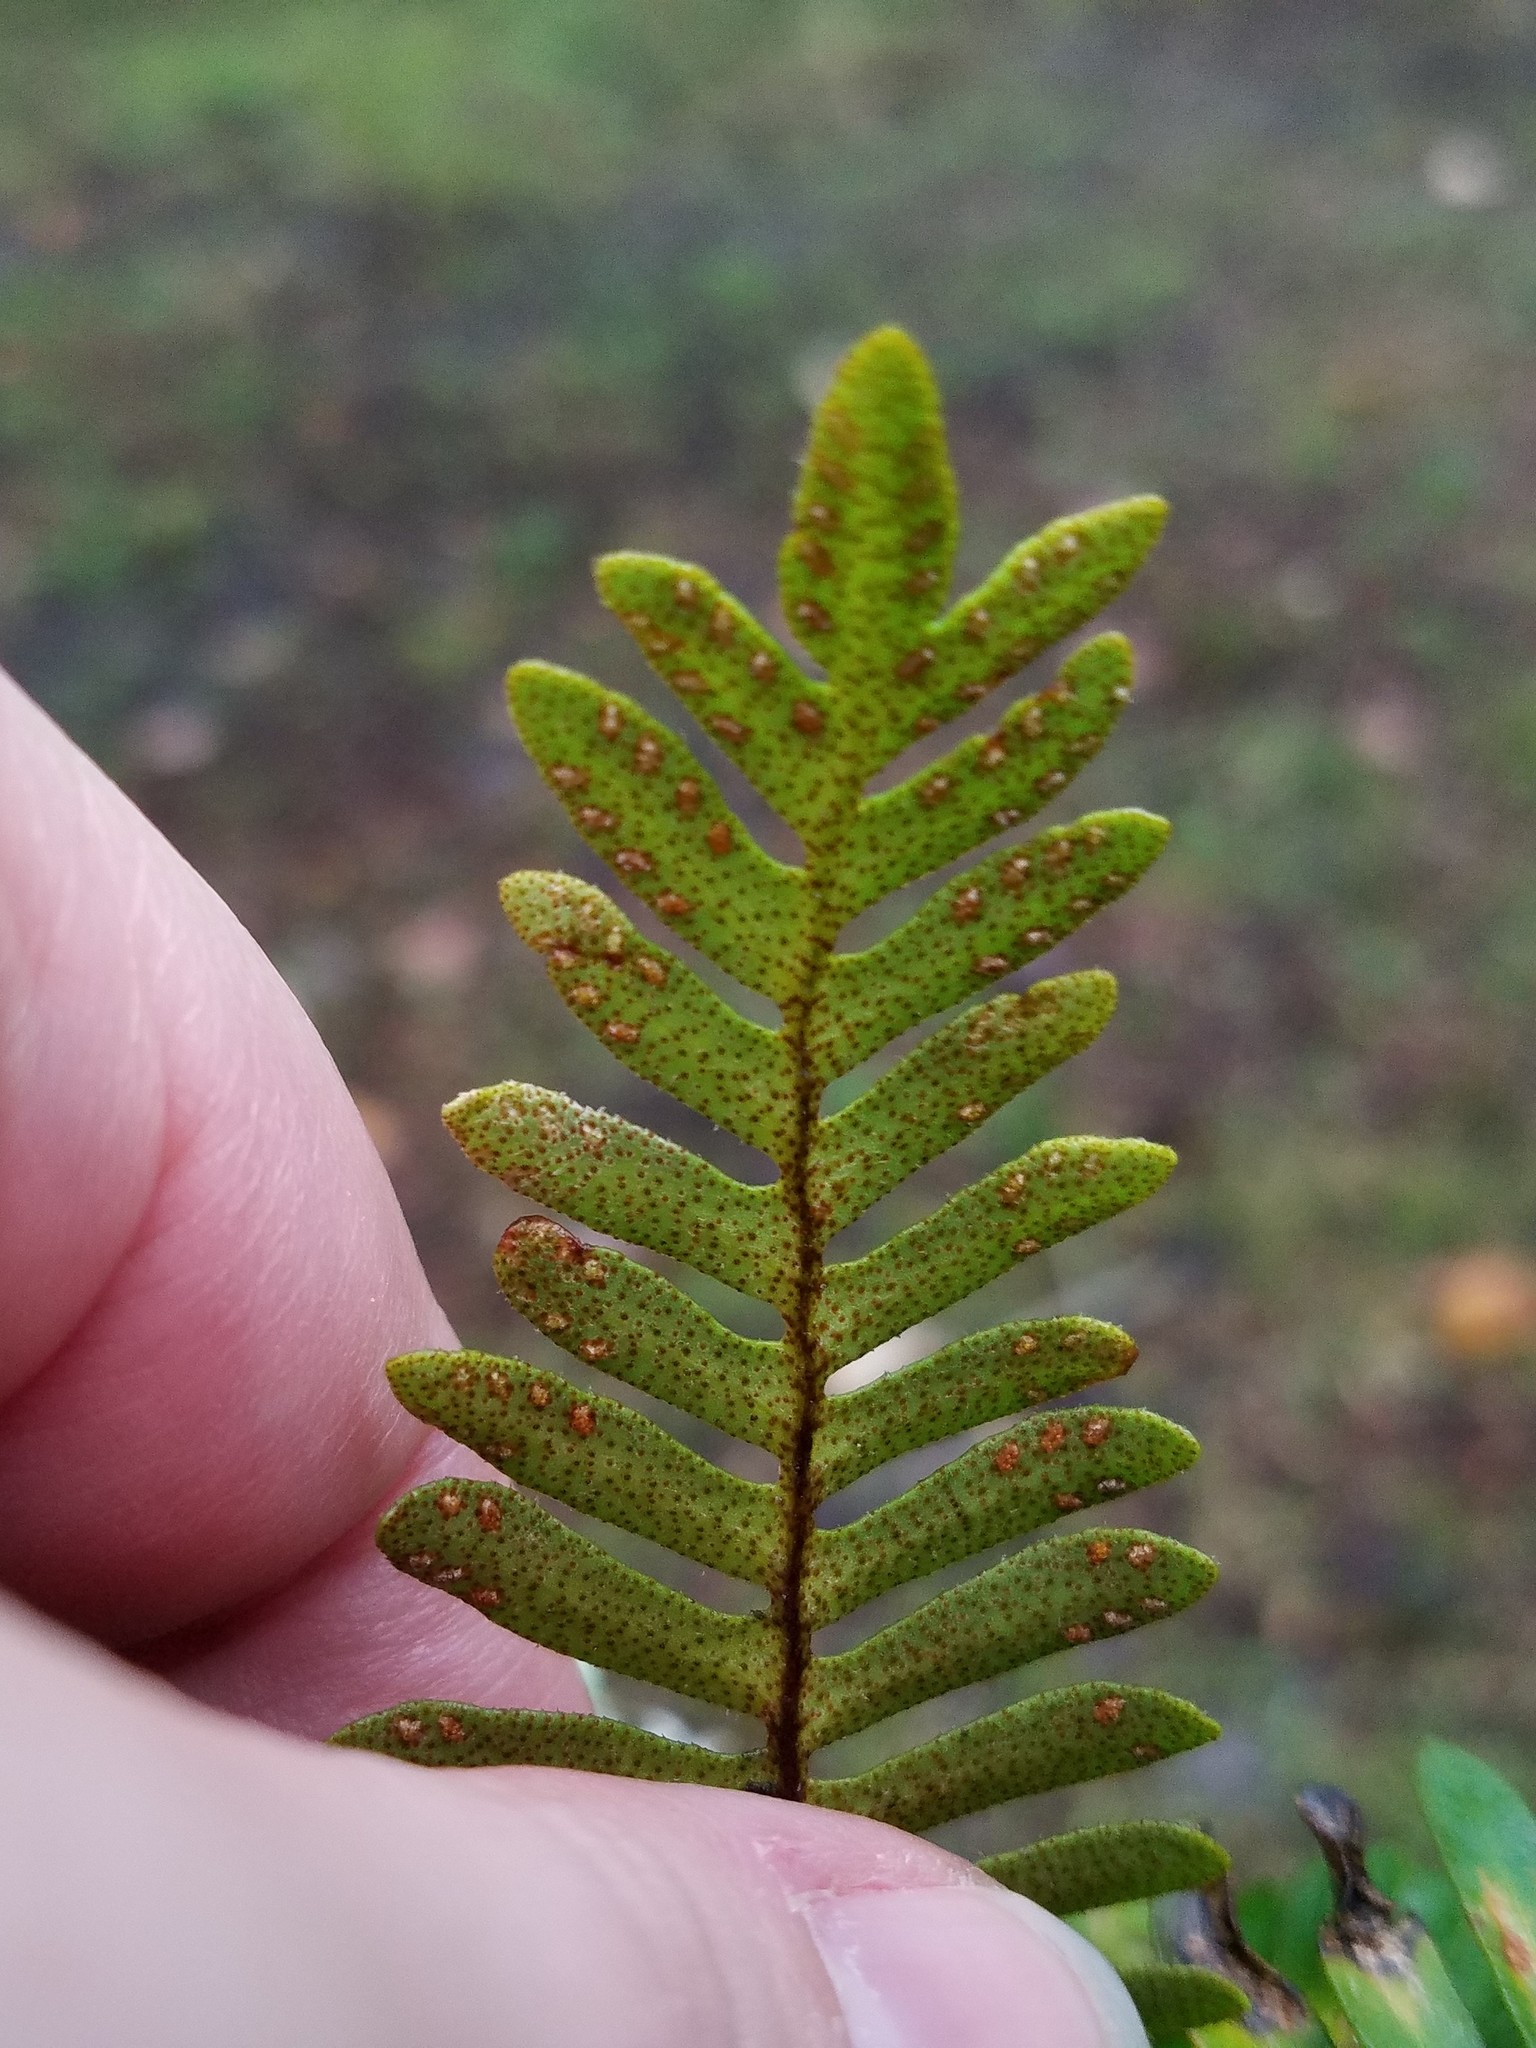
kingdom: Plantae
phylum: Tracheophyta
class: Polypodiopsida
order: Polypodiales
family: Polypodiaceae
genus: Pleopeltis
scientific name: Pleopeltis michauxiana
